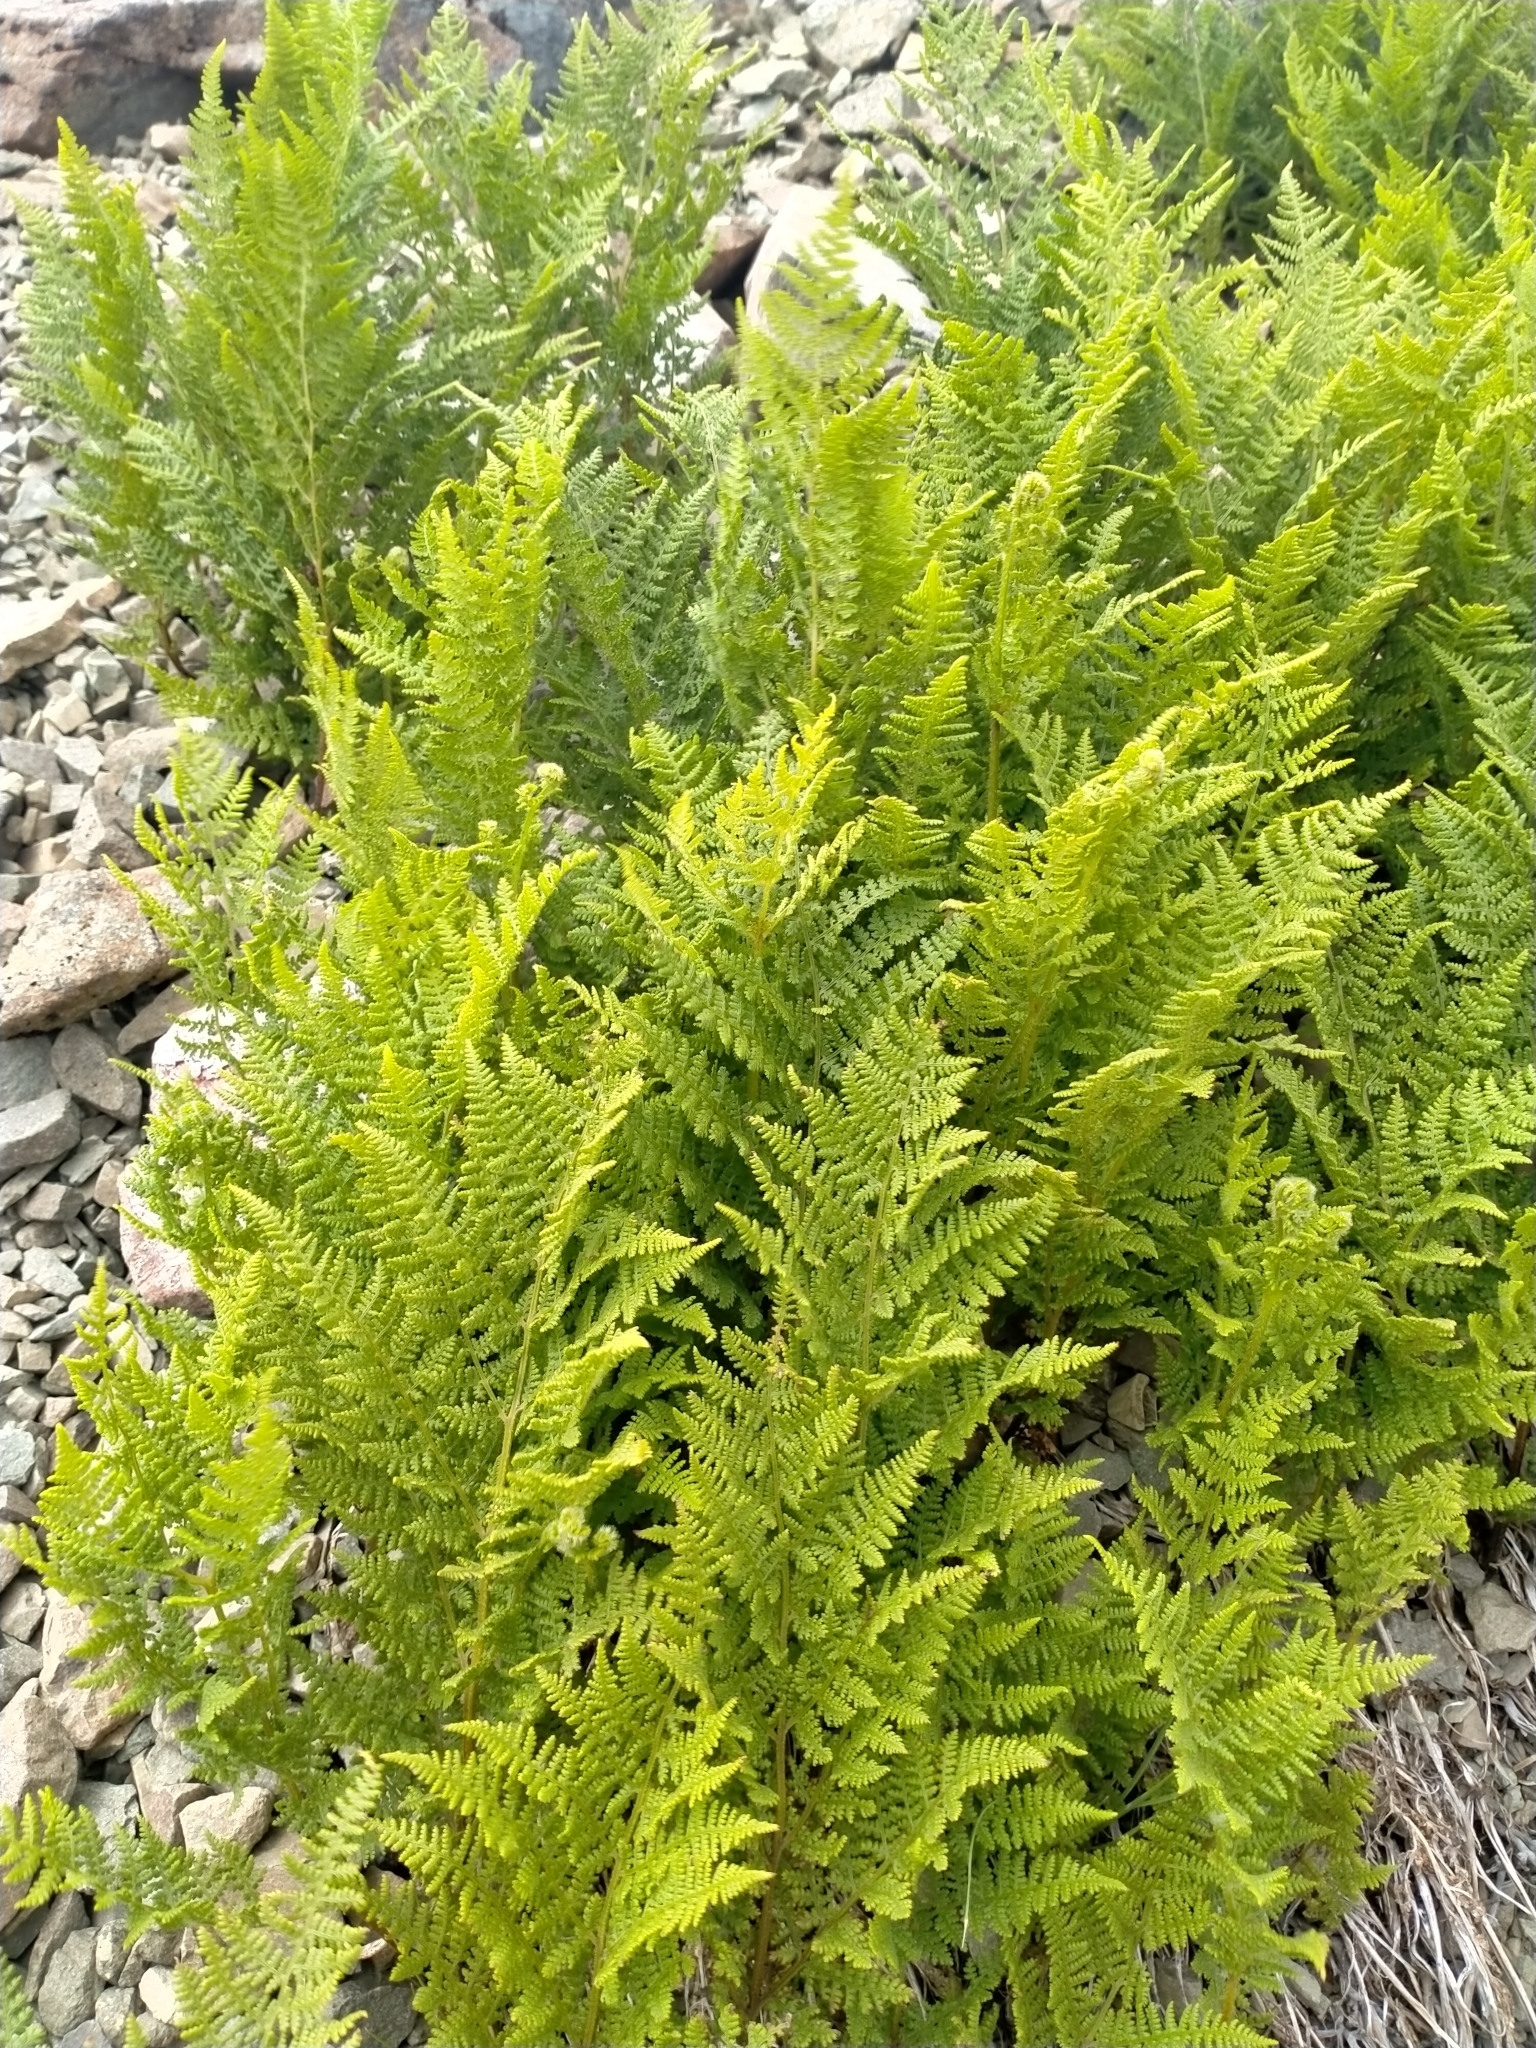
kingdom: Plantae
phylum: Tracheophyta
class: Polypodiopsida
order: Polypodiales
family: Dennstaedtiaceae
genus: Hypolepis
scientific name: Hypolepis millefolium
